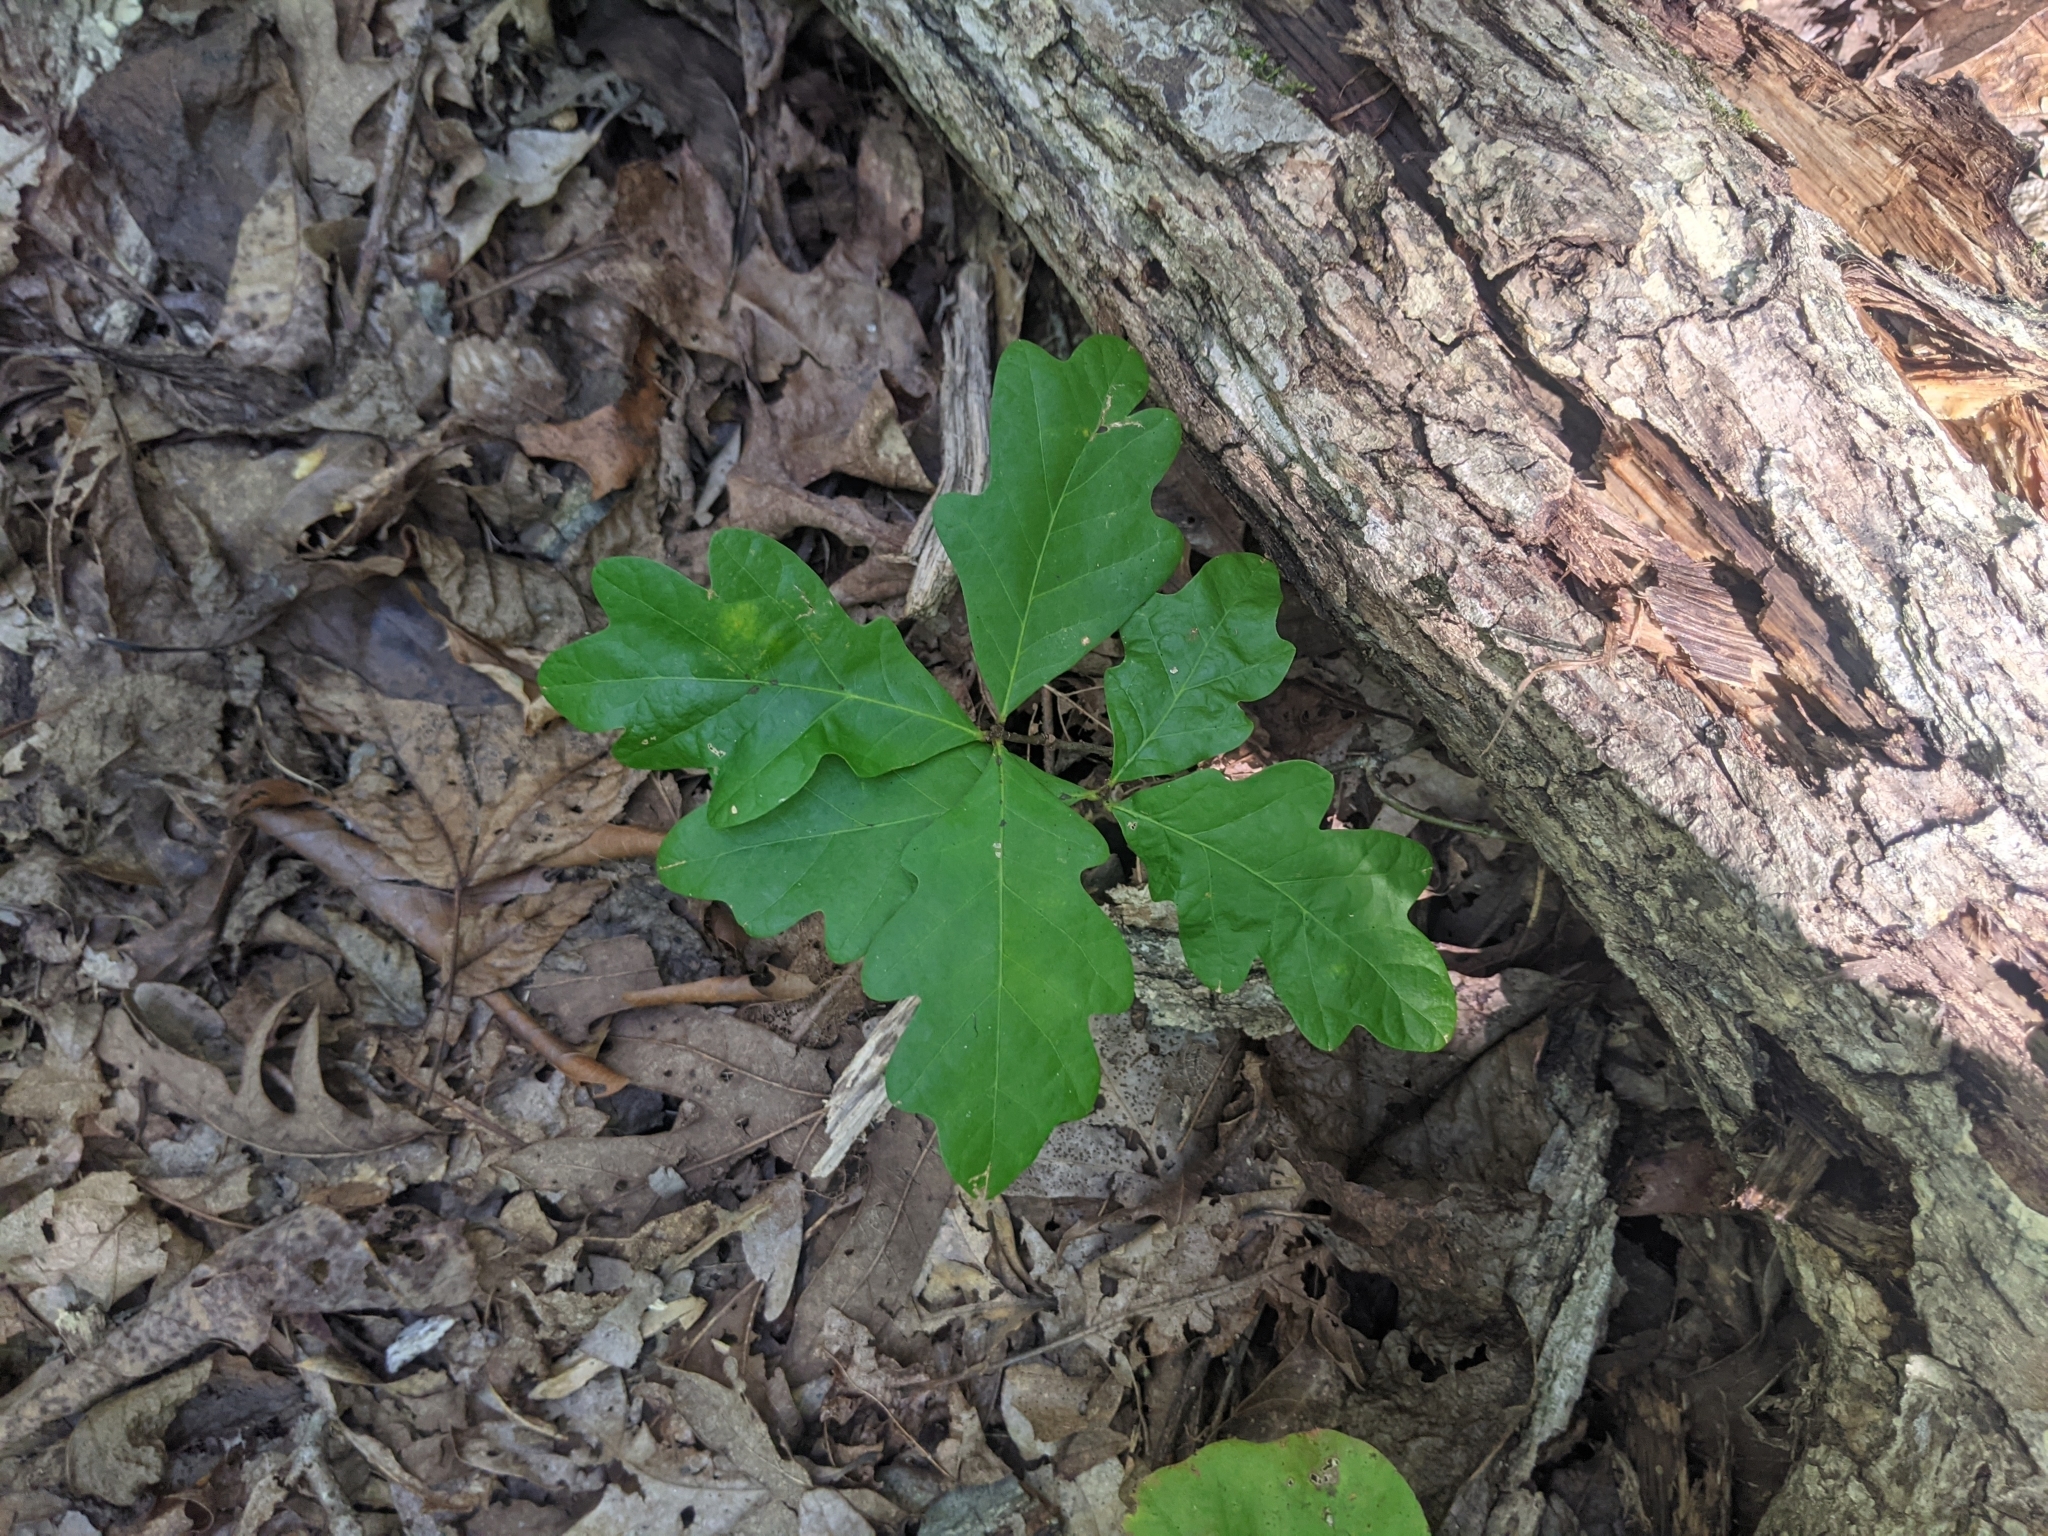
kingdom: Plantae
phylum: Tracheophyta
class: Magnoliopsida
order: Fagales
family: Fagaceae
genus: Quercus
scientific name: Quercus alba
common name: White oak
